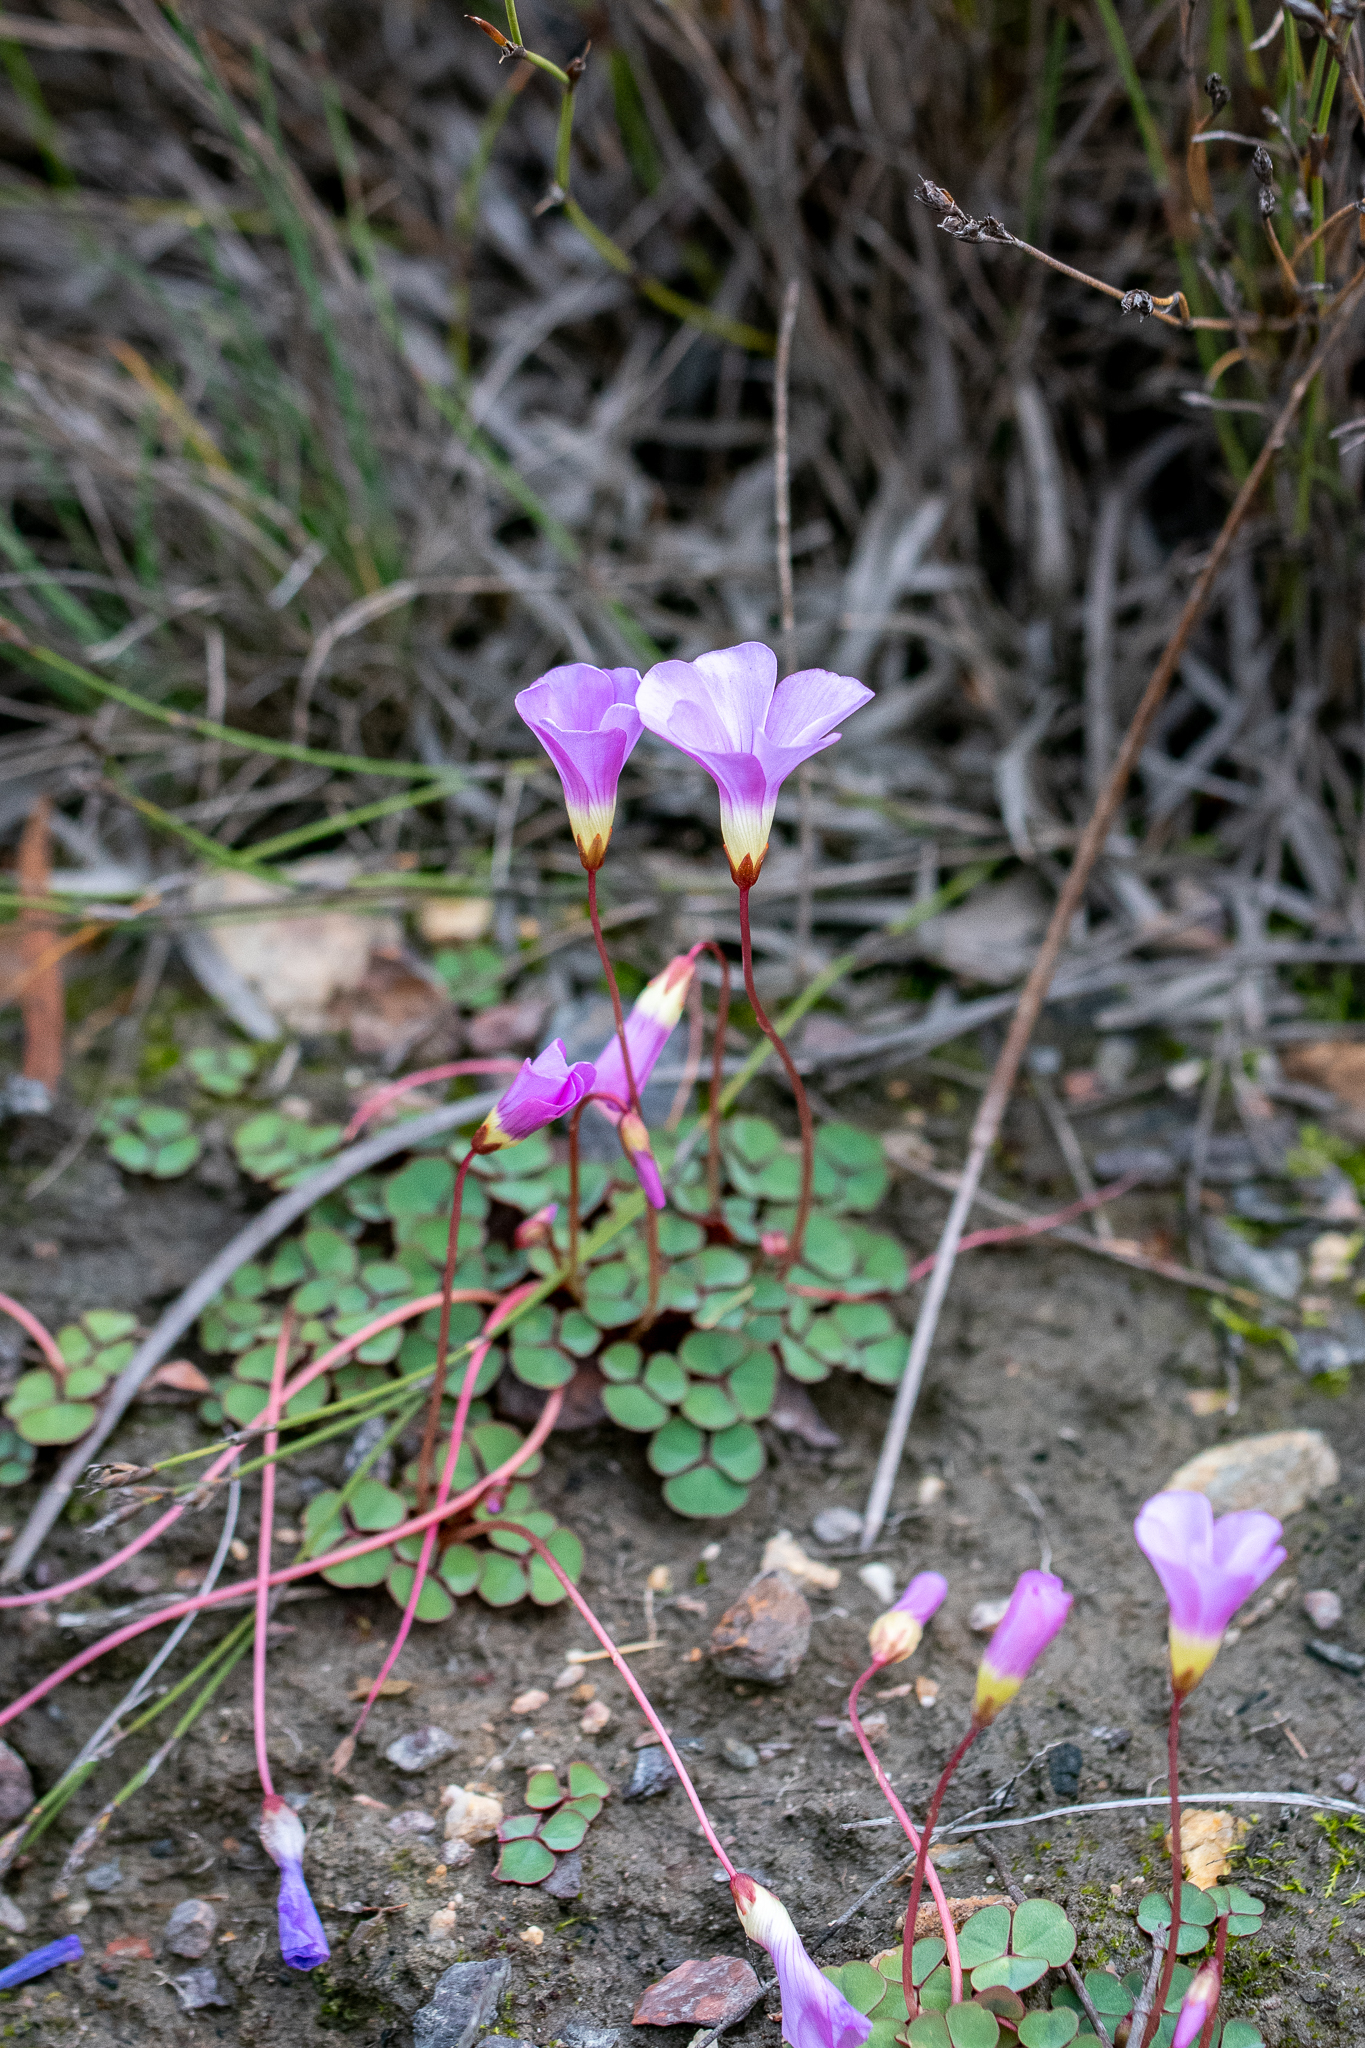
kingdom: Plantae
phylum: Tracheophyta
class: Magnoliopsida
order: Oxalidales
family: Oxalidaceae
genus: Oxalis
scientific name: Oxalis commutata
